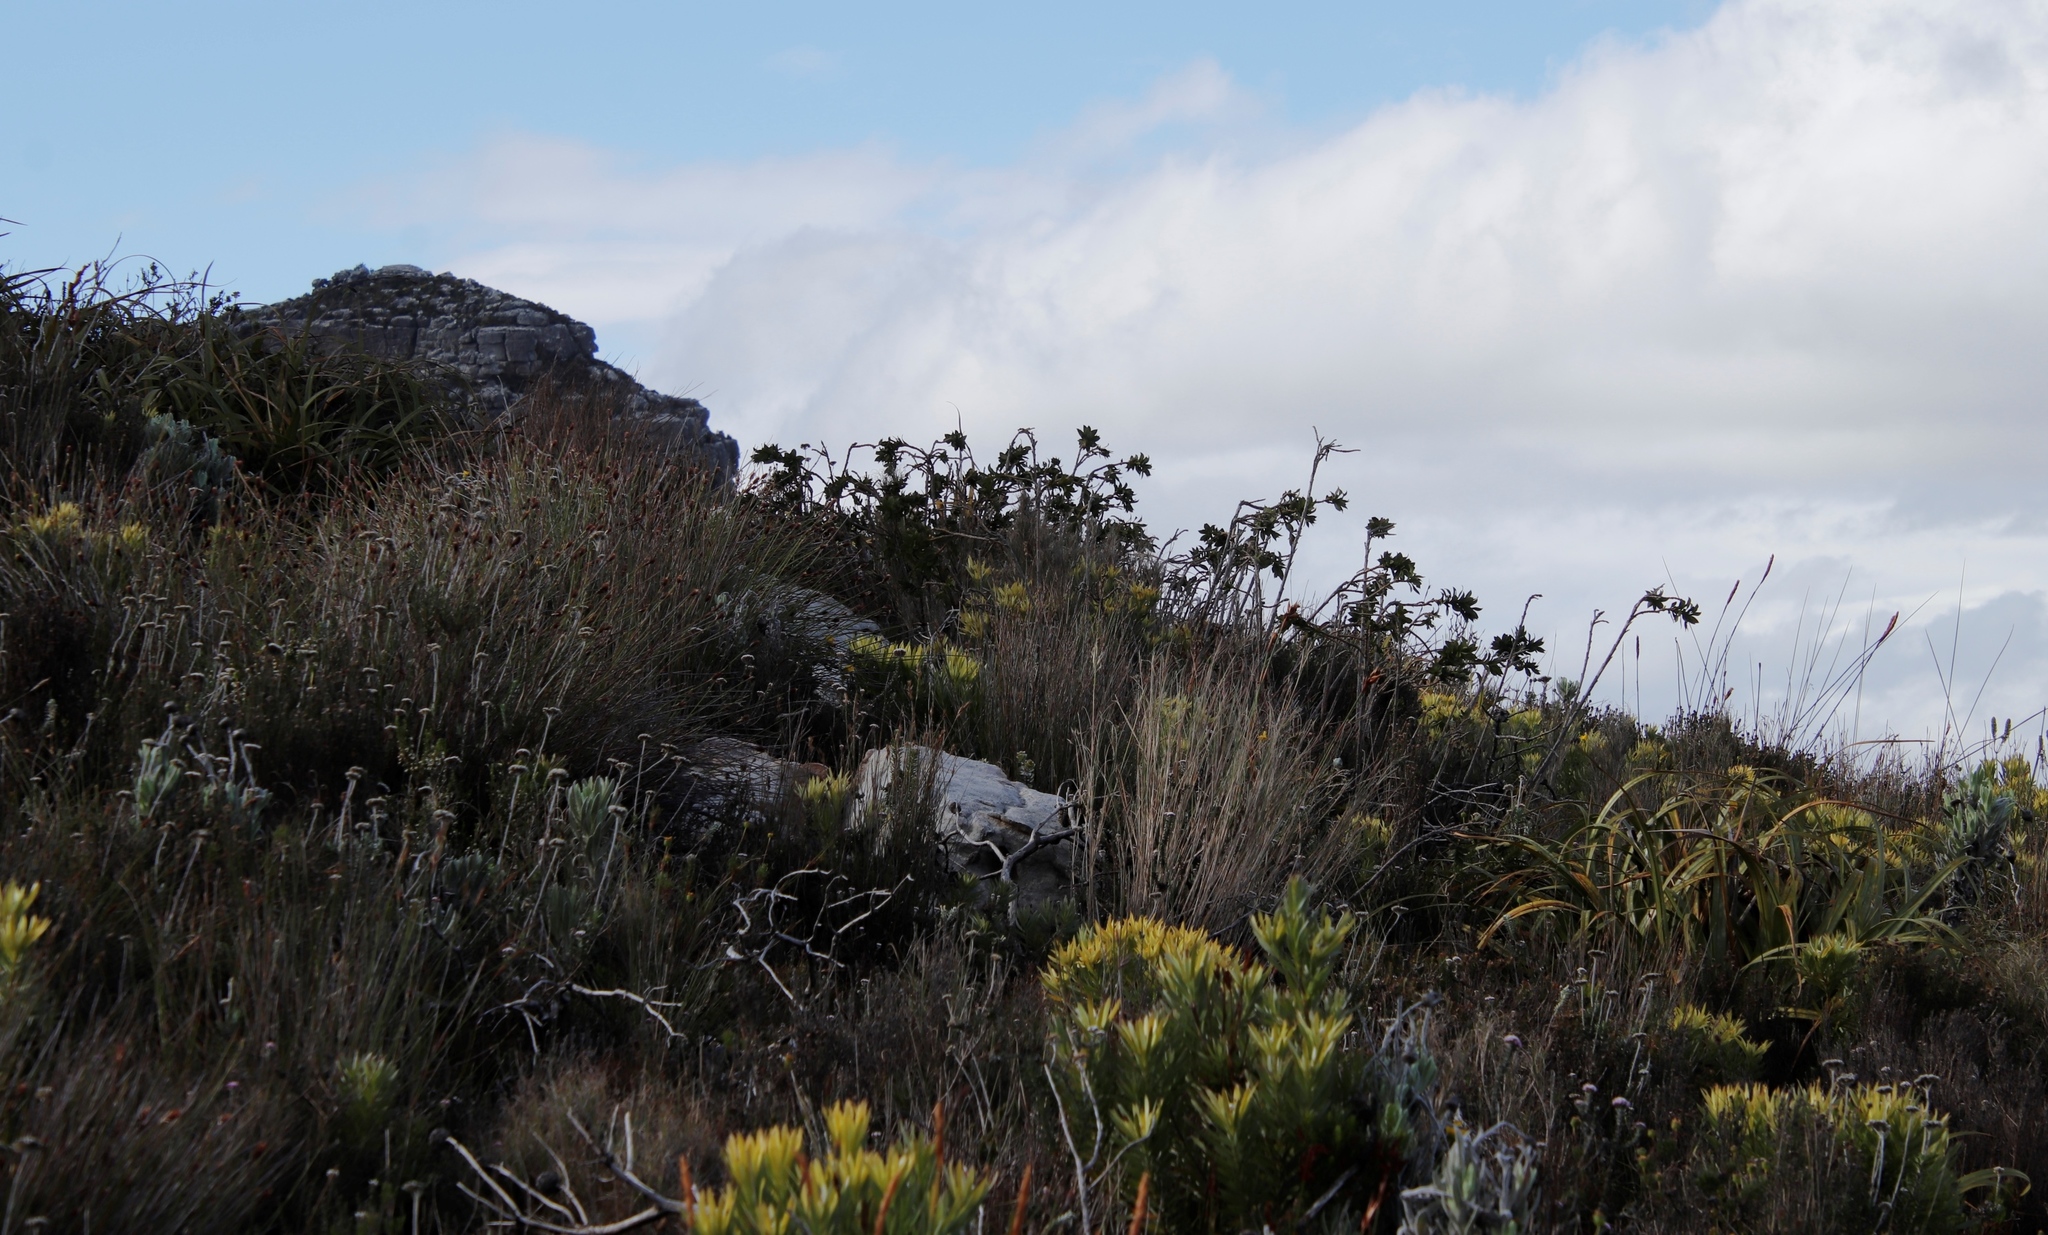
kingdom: Plantae
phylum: Tracheophyta
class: Magnoliopsida
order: Fabales
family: Fabaceae
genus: Liparia
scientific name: Liparia splendens
